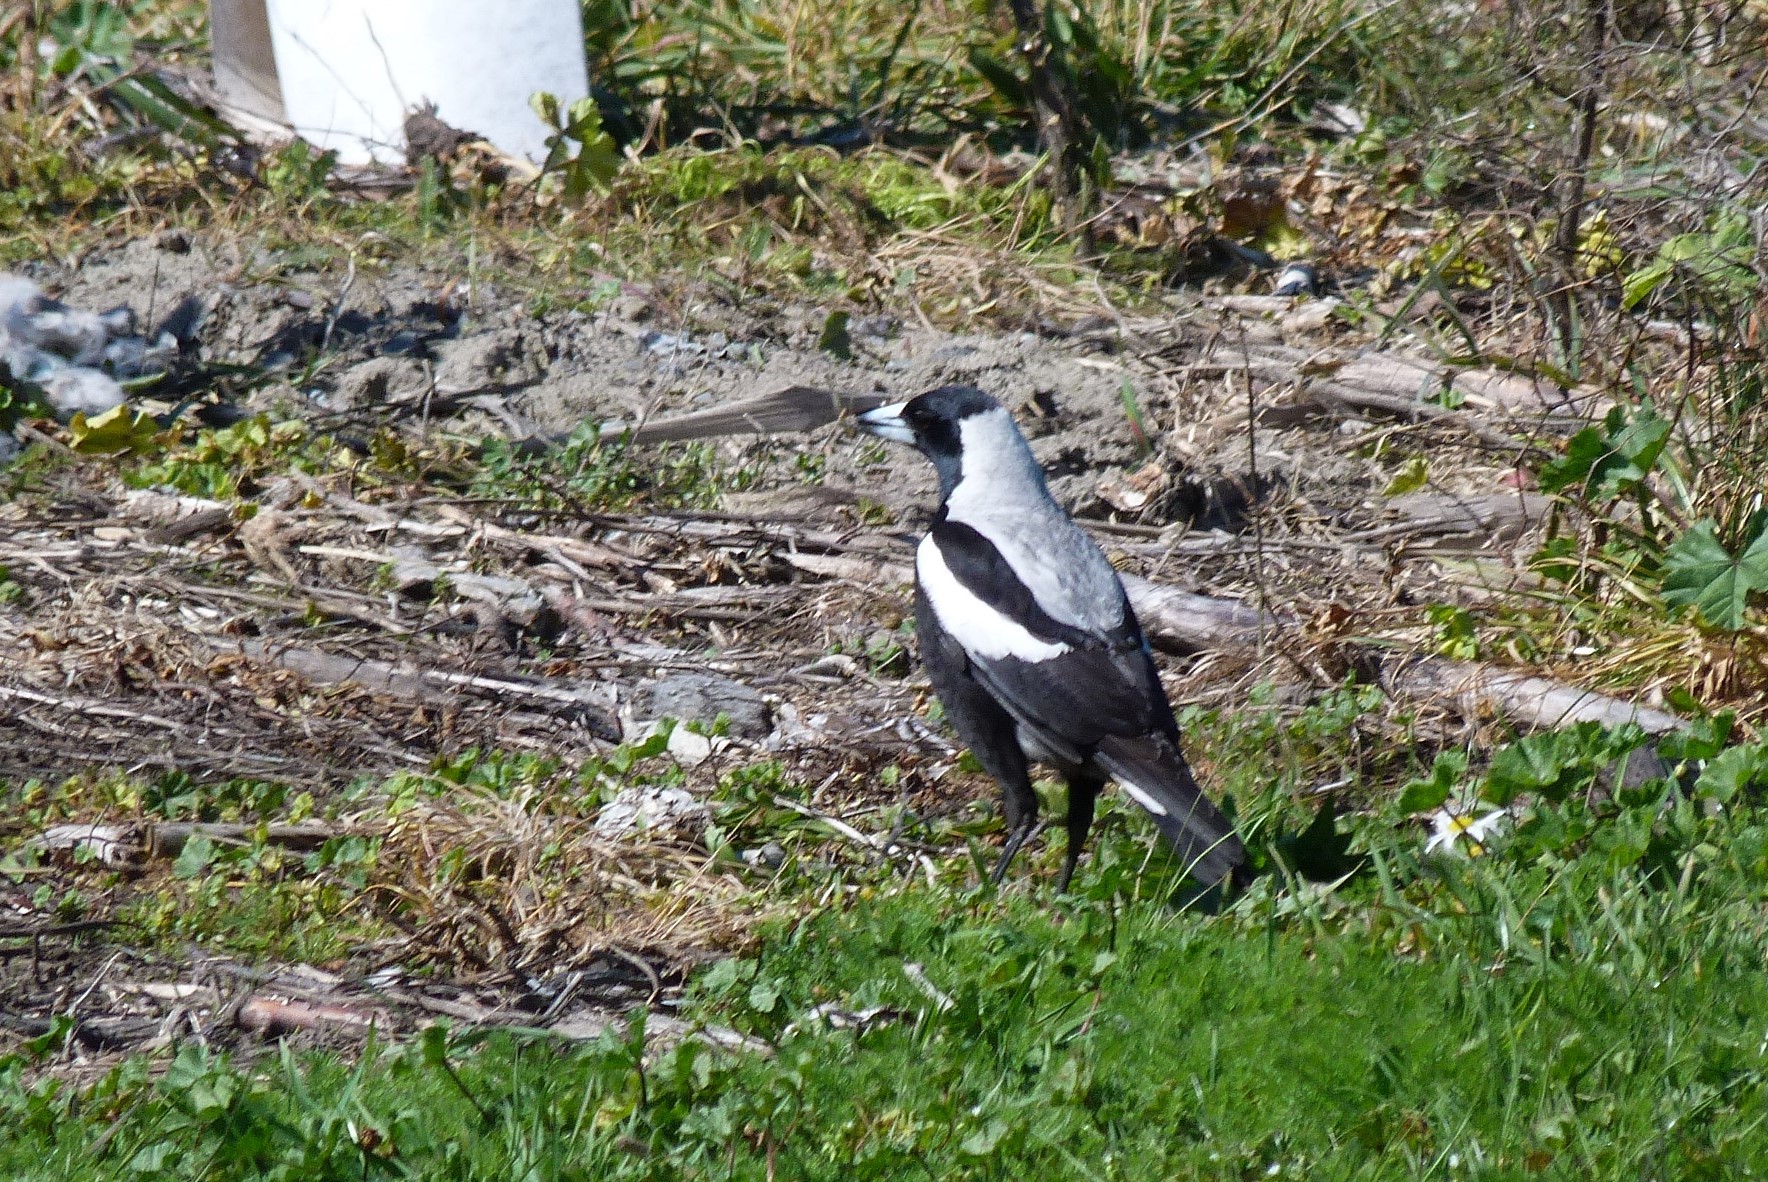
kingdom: Animalia
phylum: Chordata
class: Aves
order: Passeriformes
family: Cracticidae
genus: Gymnorhina
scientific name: Gymnorhina tibicen
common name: Australian magpie
